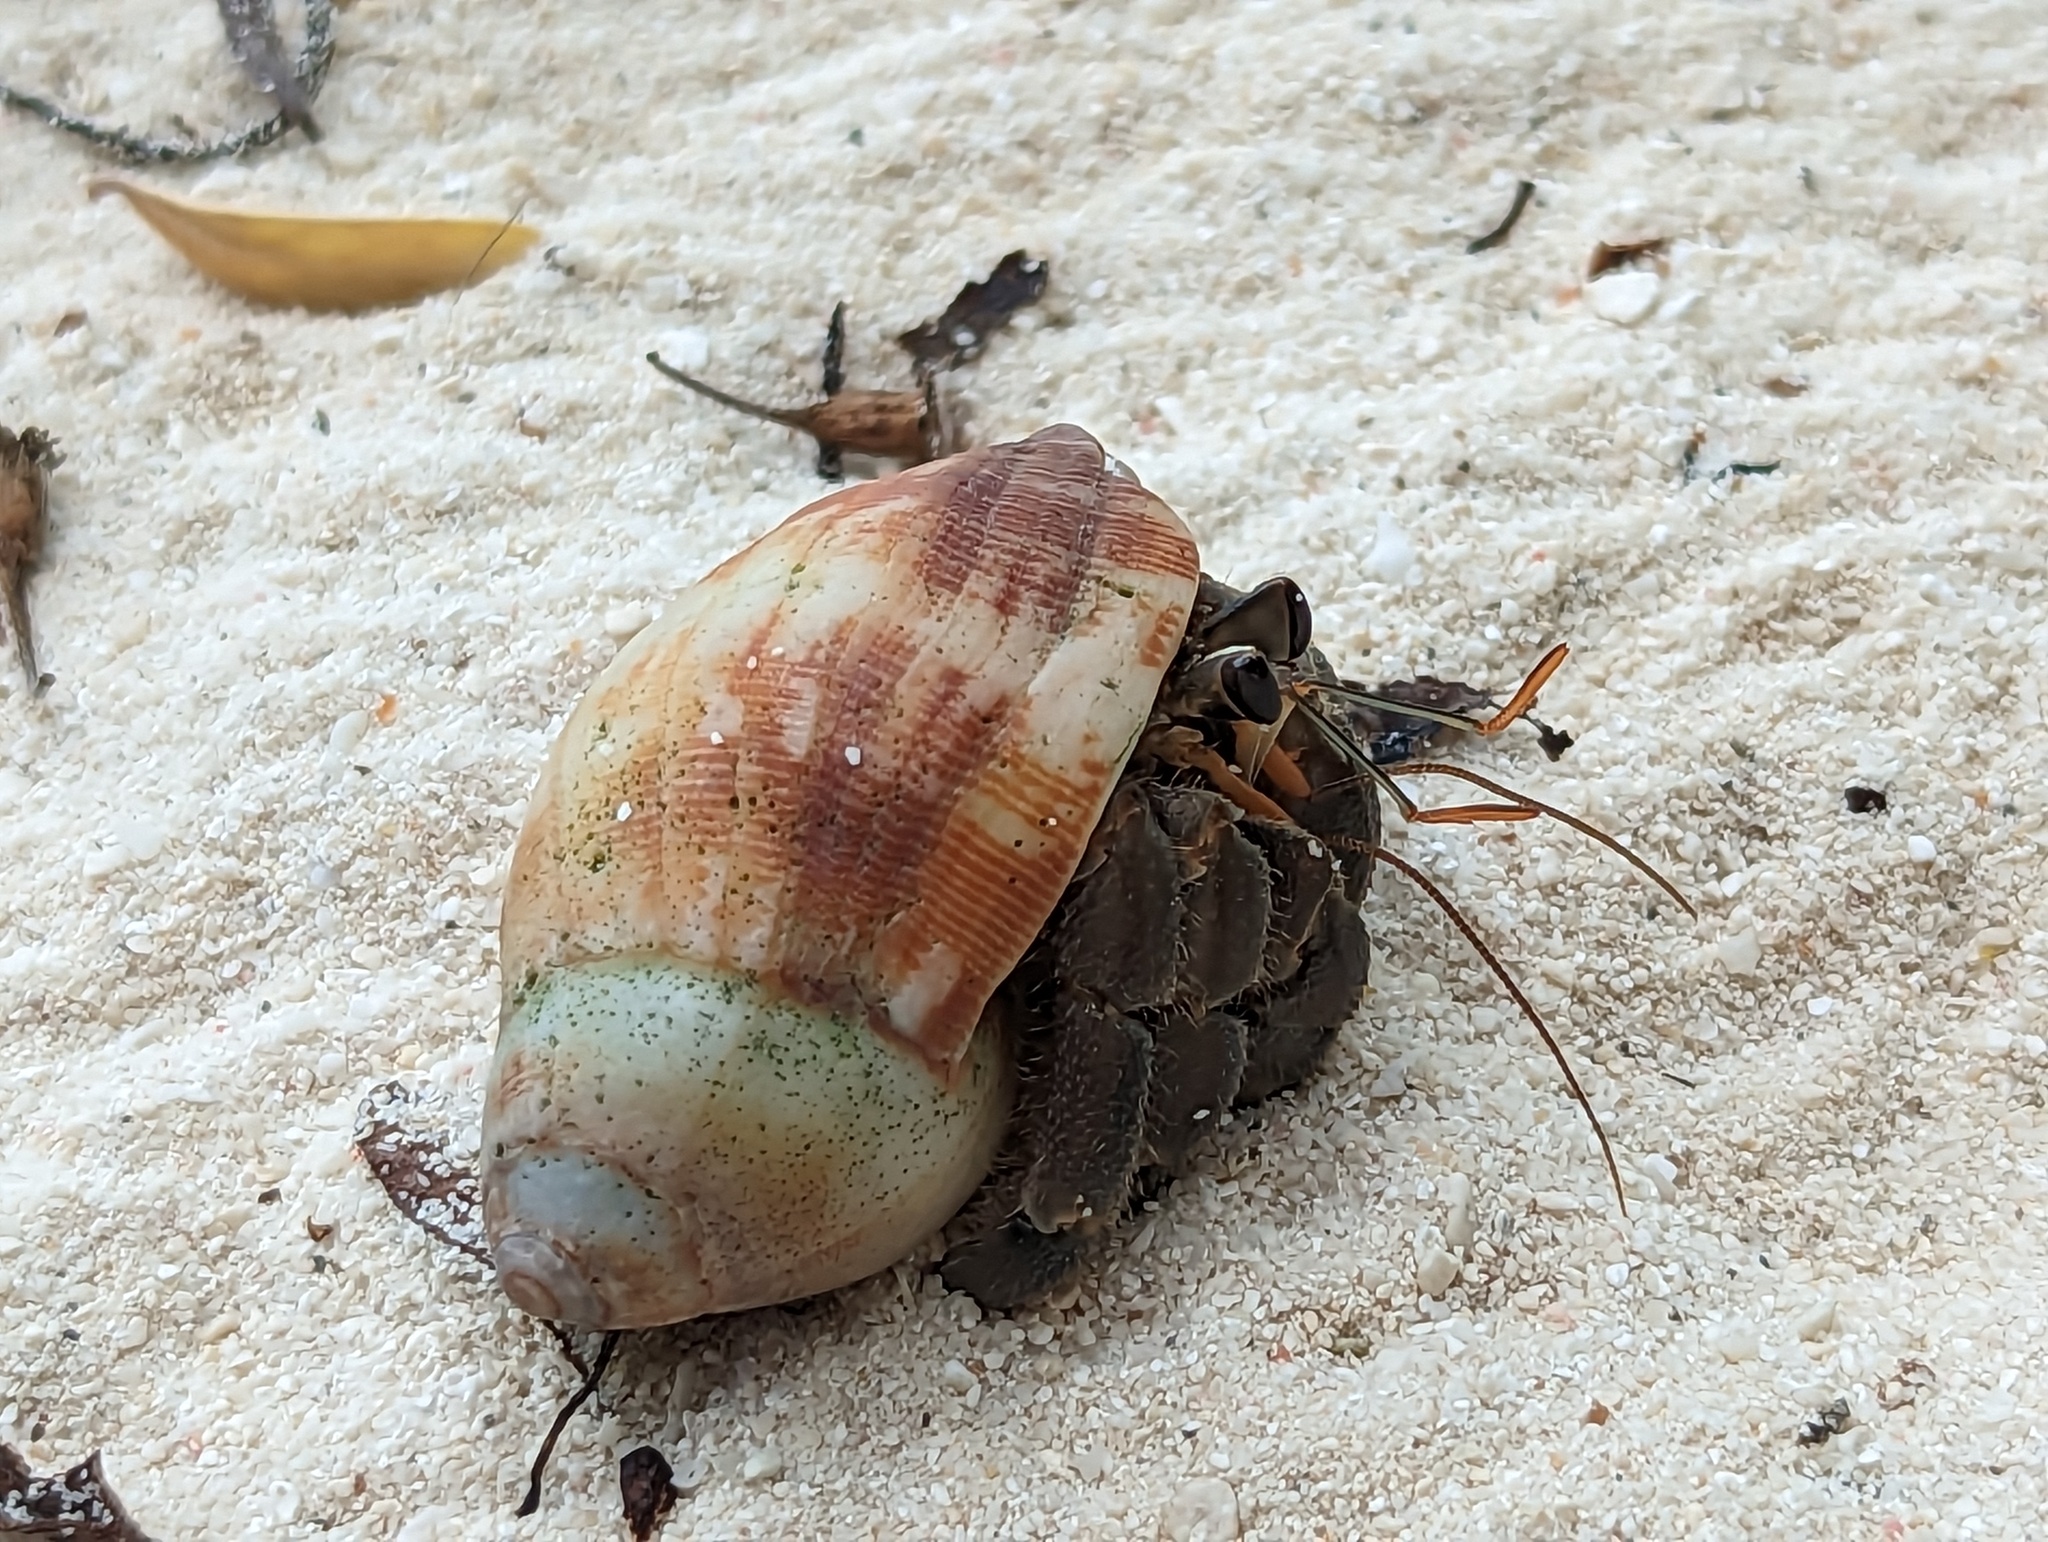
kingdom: Animalia
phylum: Arthropoda
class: Malacostraca
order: Decapoda
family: Coenobitidae
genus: Coenobita
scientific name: Coenobita rugosus
